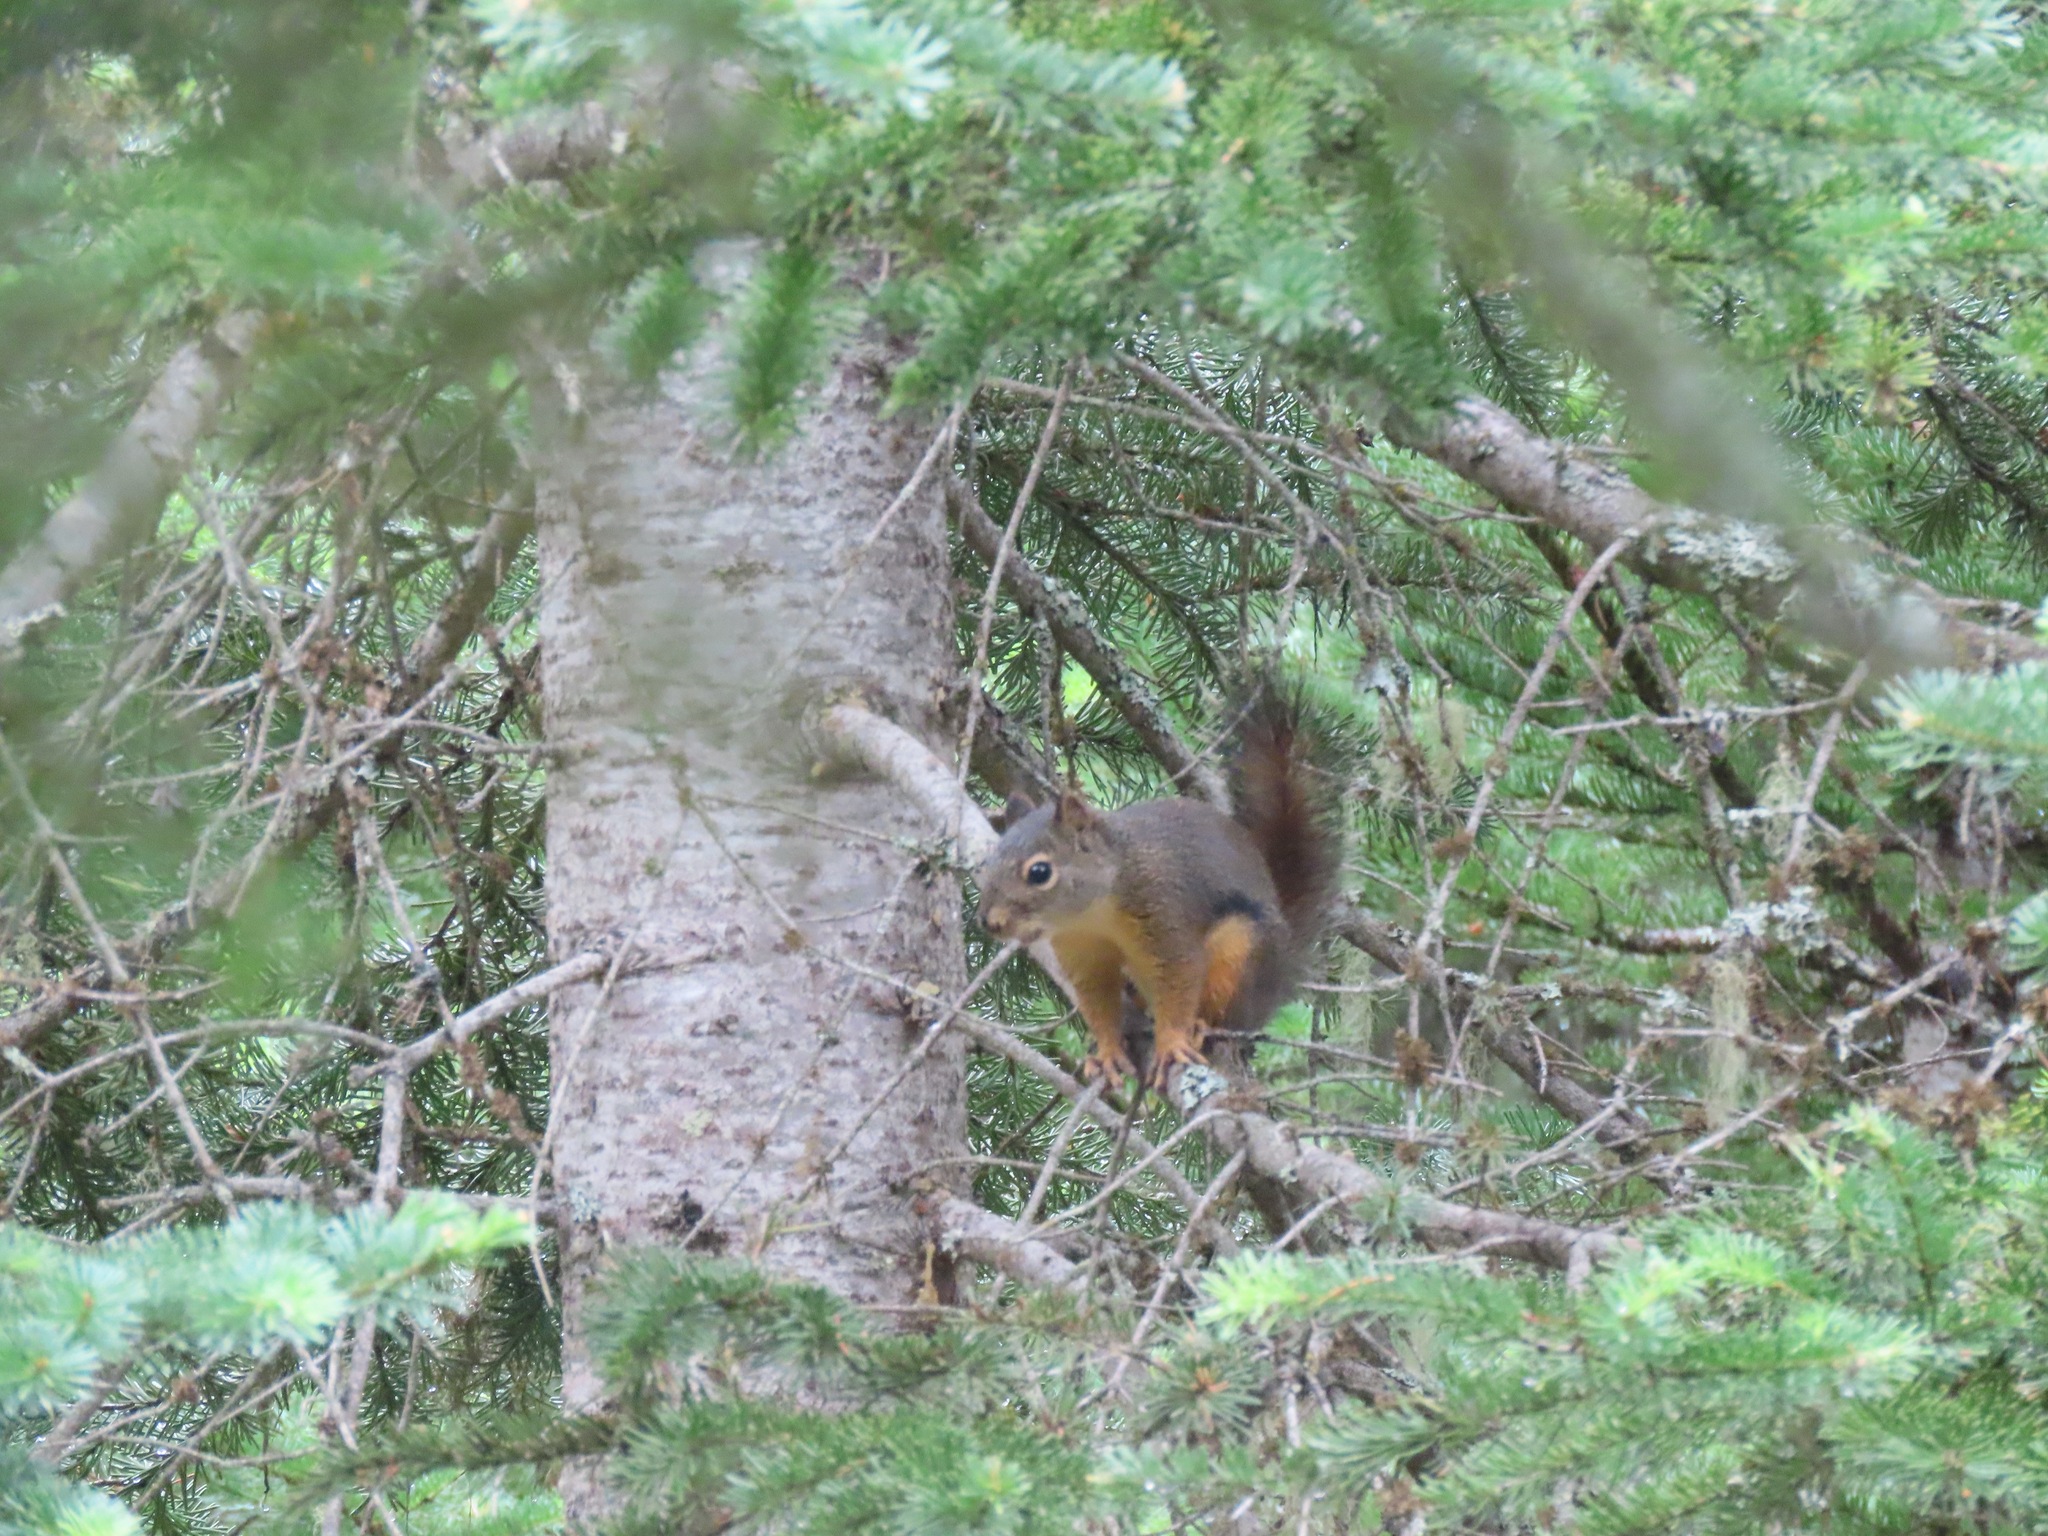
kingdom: Animalia
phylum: Chordata
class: Mammalia
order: Rodentia
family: Sciuridae
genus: Tamiasciurus
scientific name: Tamiasciurus douglasii
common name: Douglas's squirrel
